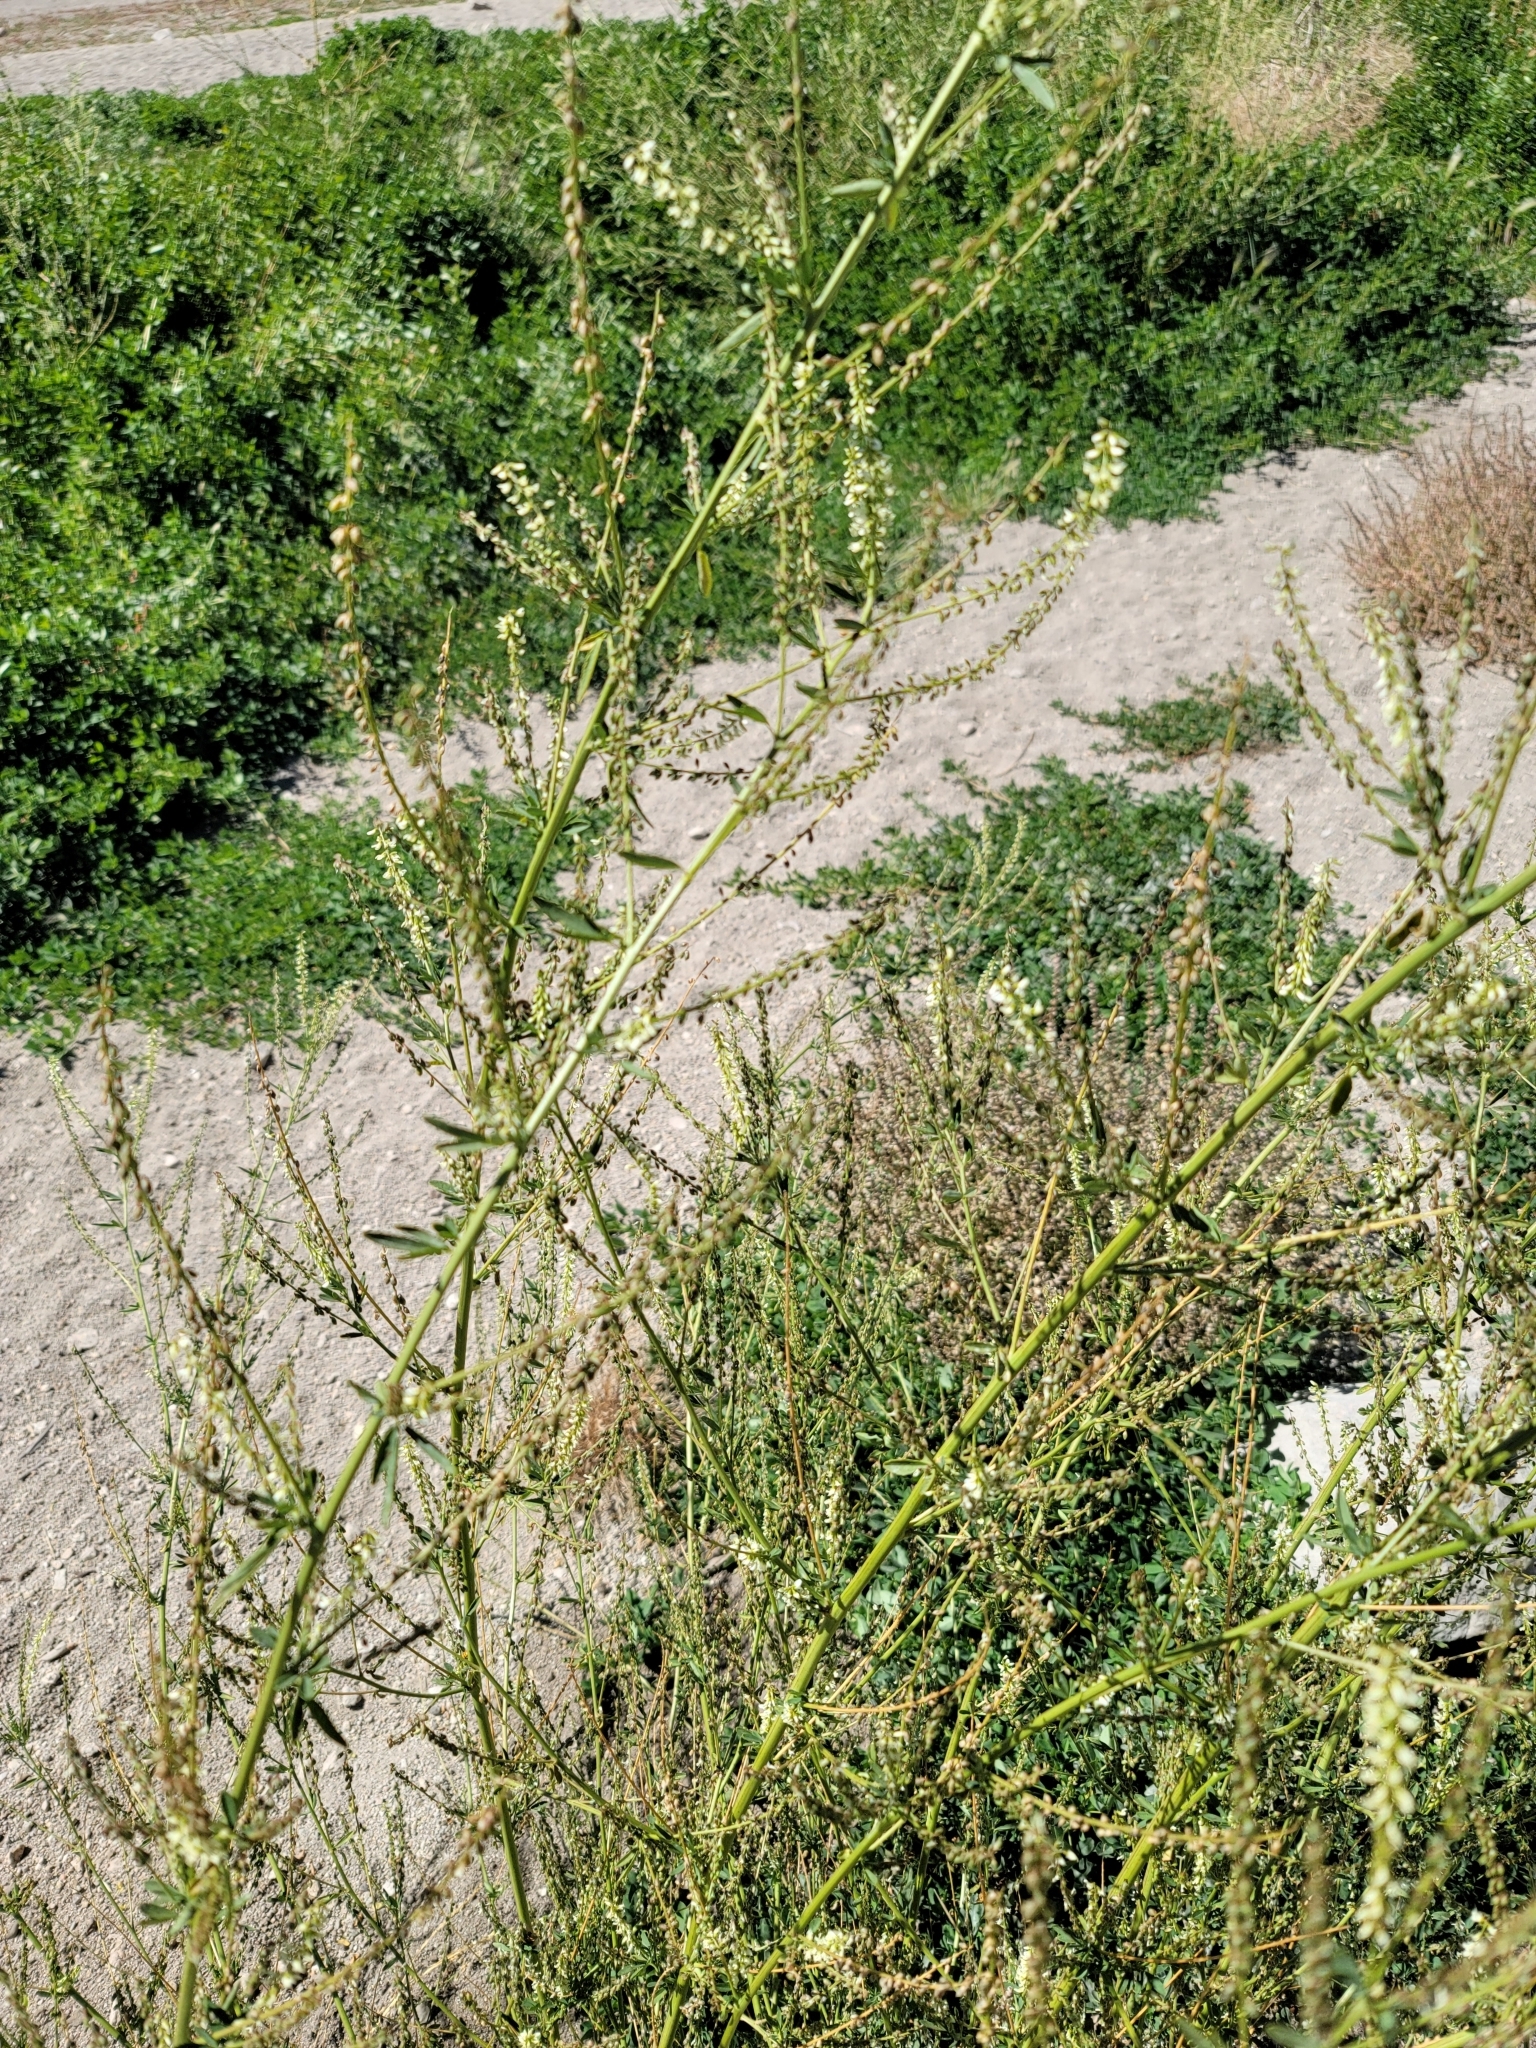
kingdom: Plantae
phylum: Tracheophyta
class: Magnoliopsida
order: Fabales
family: Fabaceae
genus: Melilotus
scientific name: Melilotus albus
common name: White melilot
